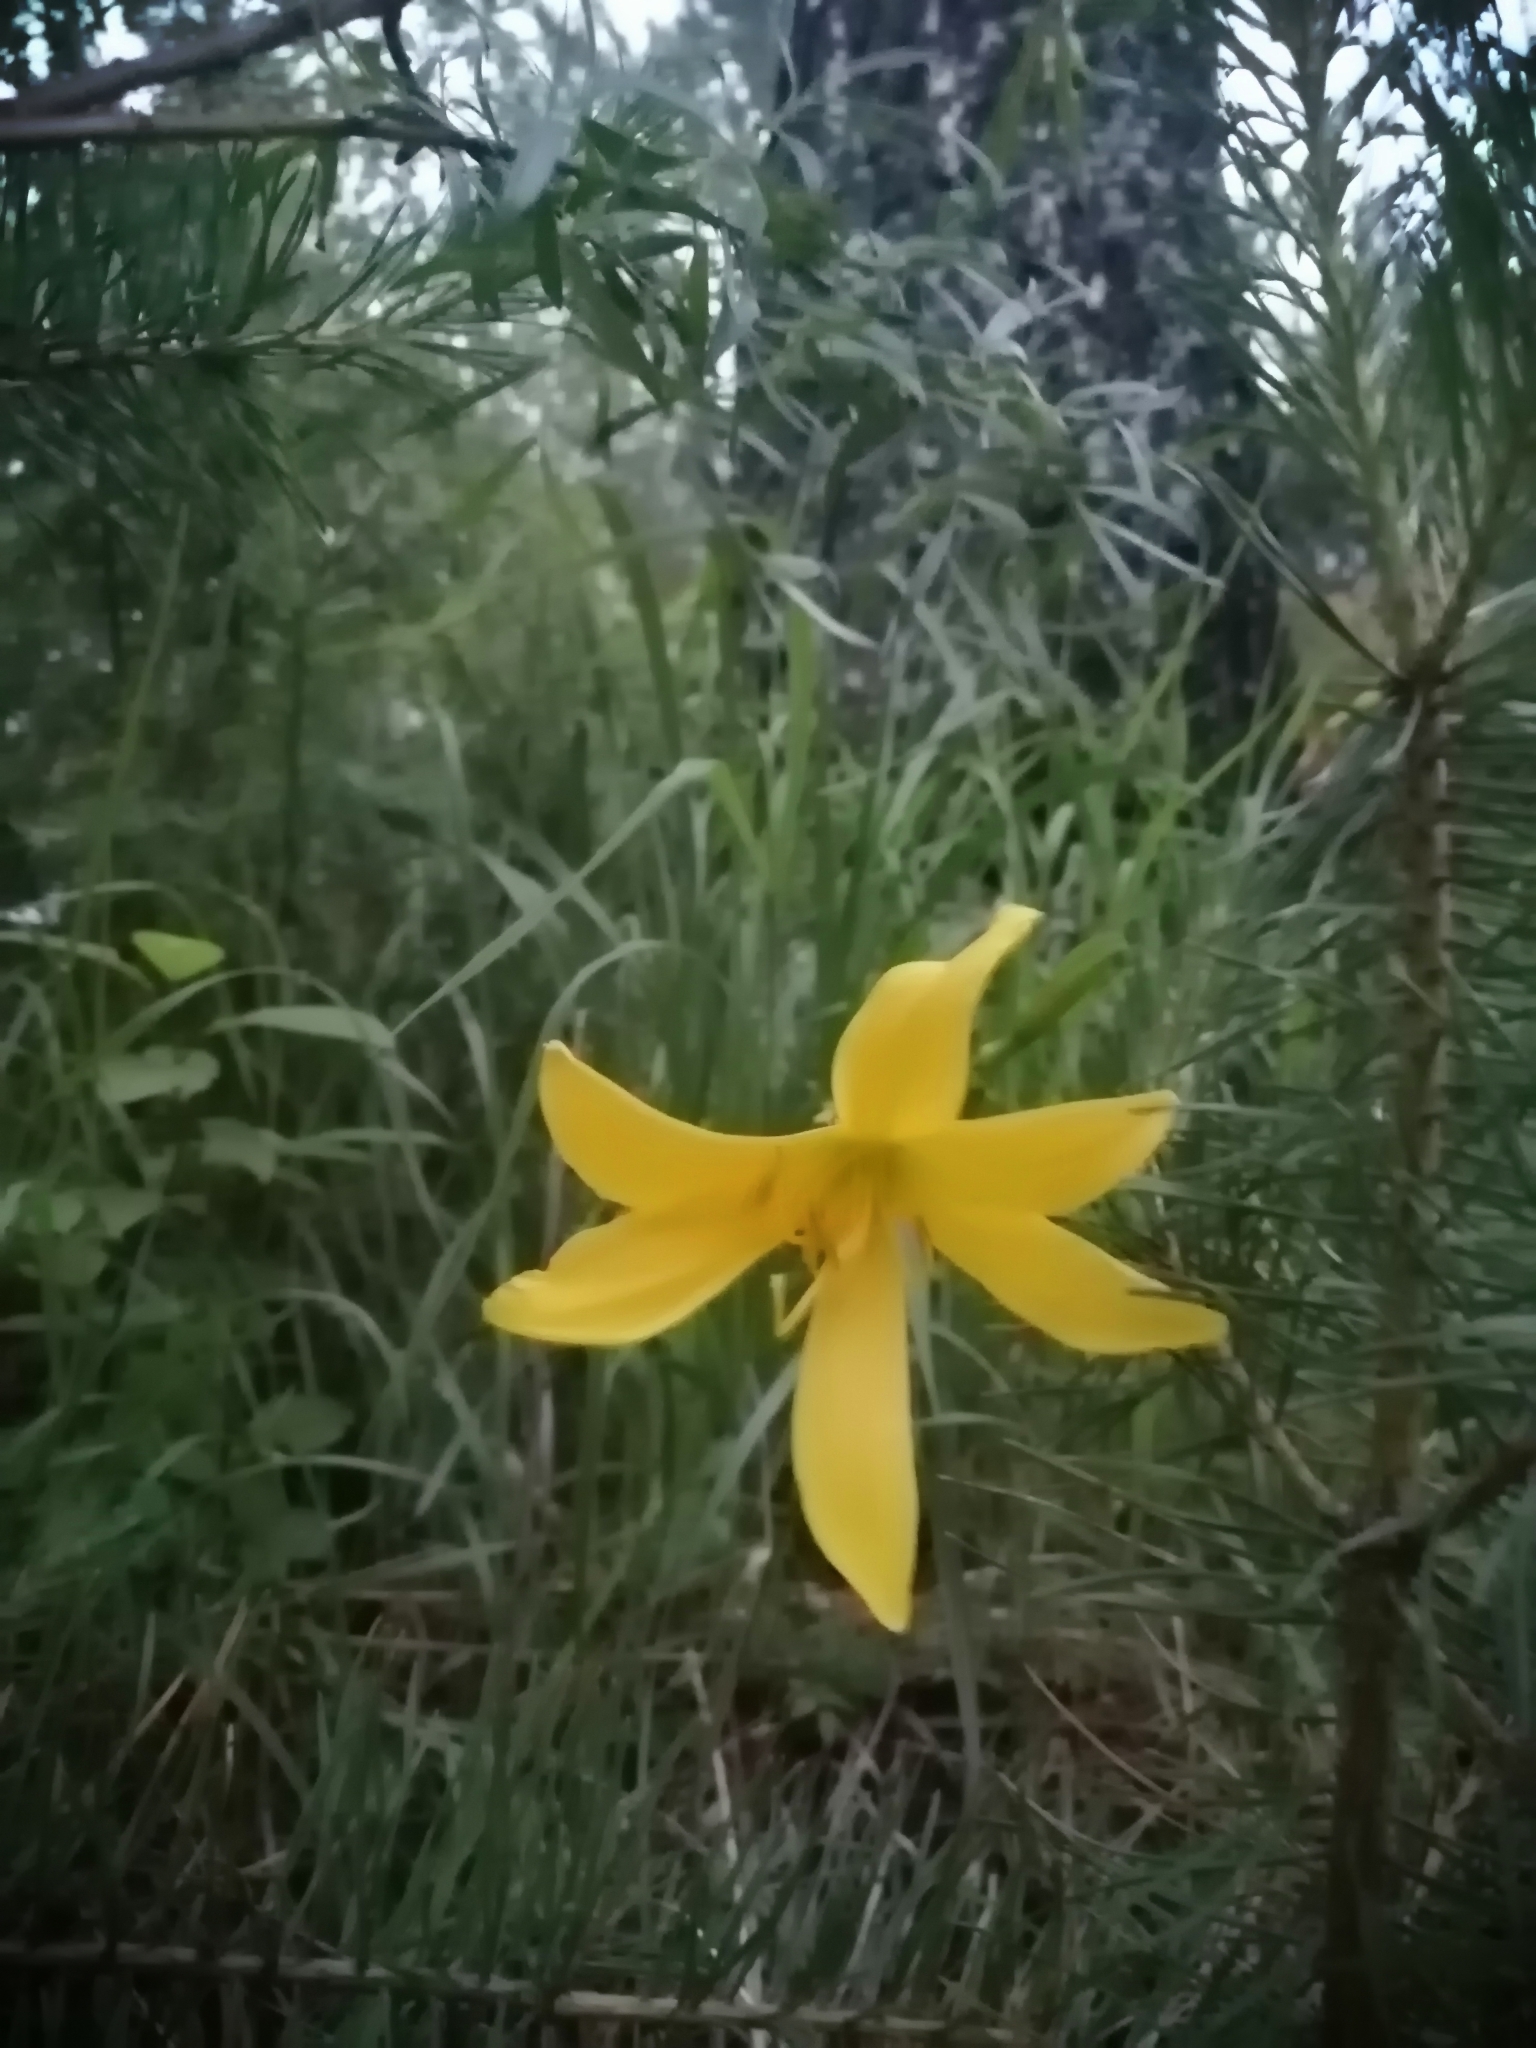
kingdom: Plantae
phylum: Tracheophyta
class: Liliopsida
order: Asparagales
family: Asphodelaceae
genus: Hemerocallis
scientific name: Hemerocallis minor
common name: Small daylily
